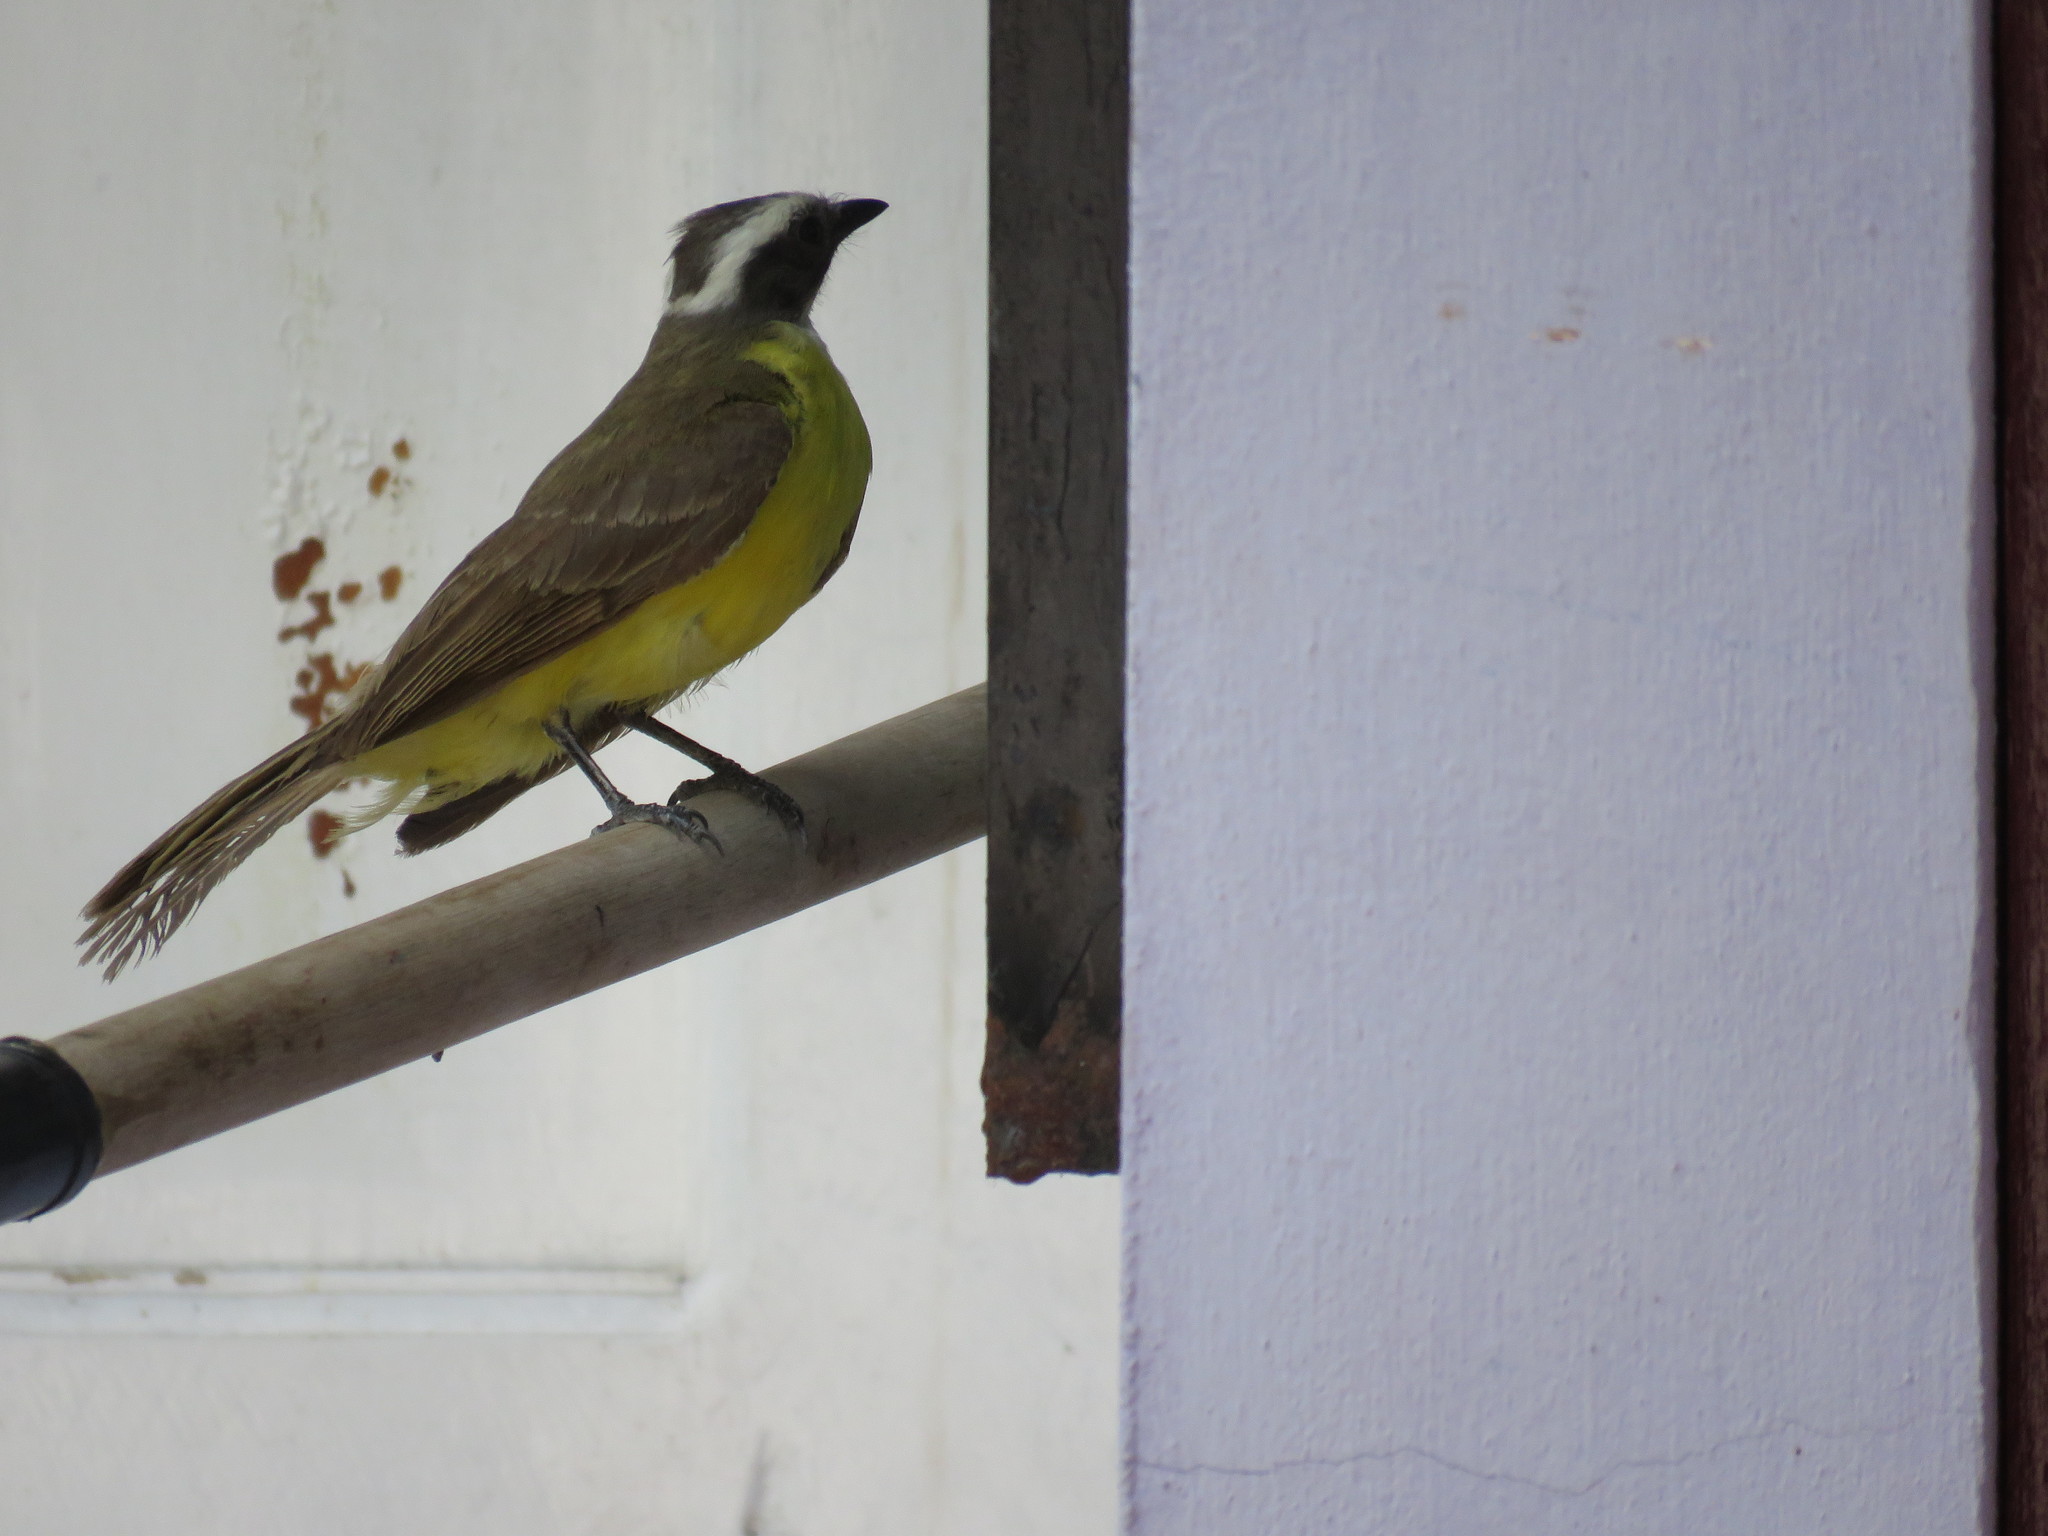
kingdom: Animalia
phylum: Chordata
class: Aves
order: Passeriformes
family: Tyrannidae
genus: Myiozetetes
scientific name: Myiozetetes similis
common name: Social flycatcher
